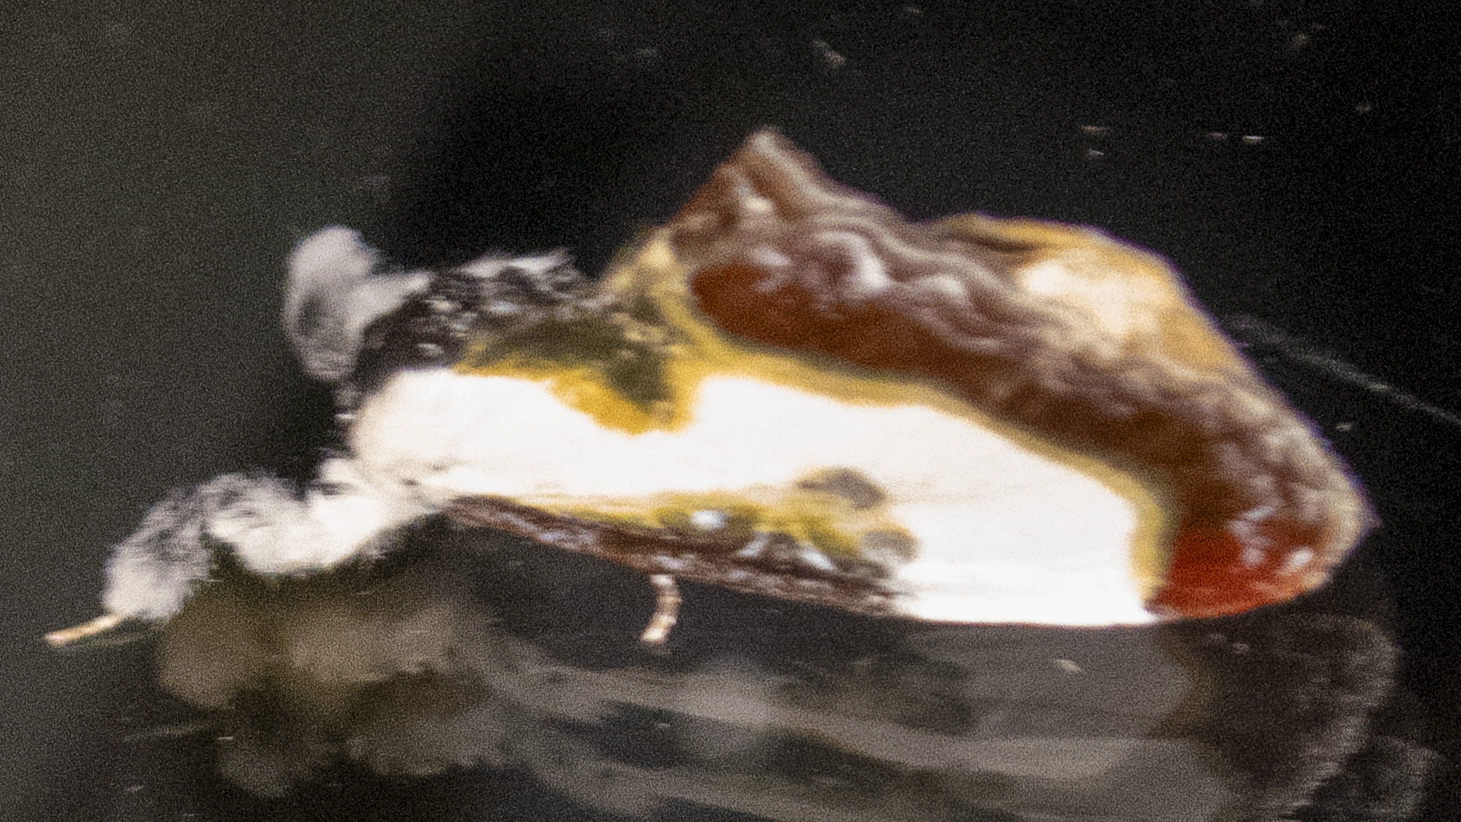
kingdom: Animalia
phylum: Arthropoda
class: Insecta
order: Lepidoptera
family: Noctuidae
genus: Eudryas
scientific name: Eudryas grata
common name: Beautiful wood-nymph
